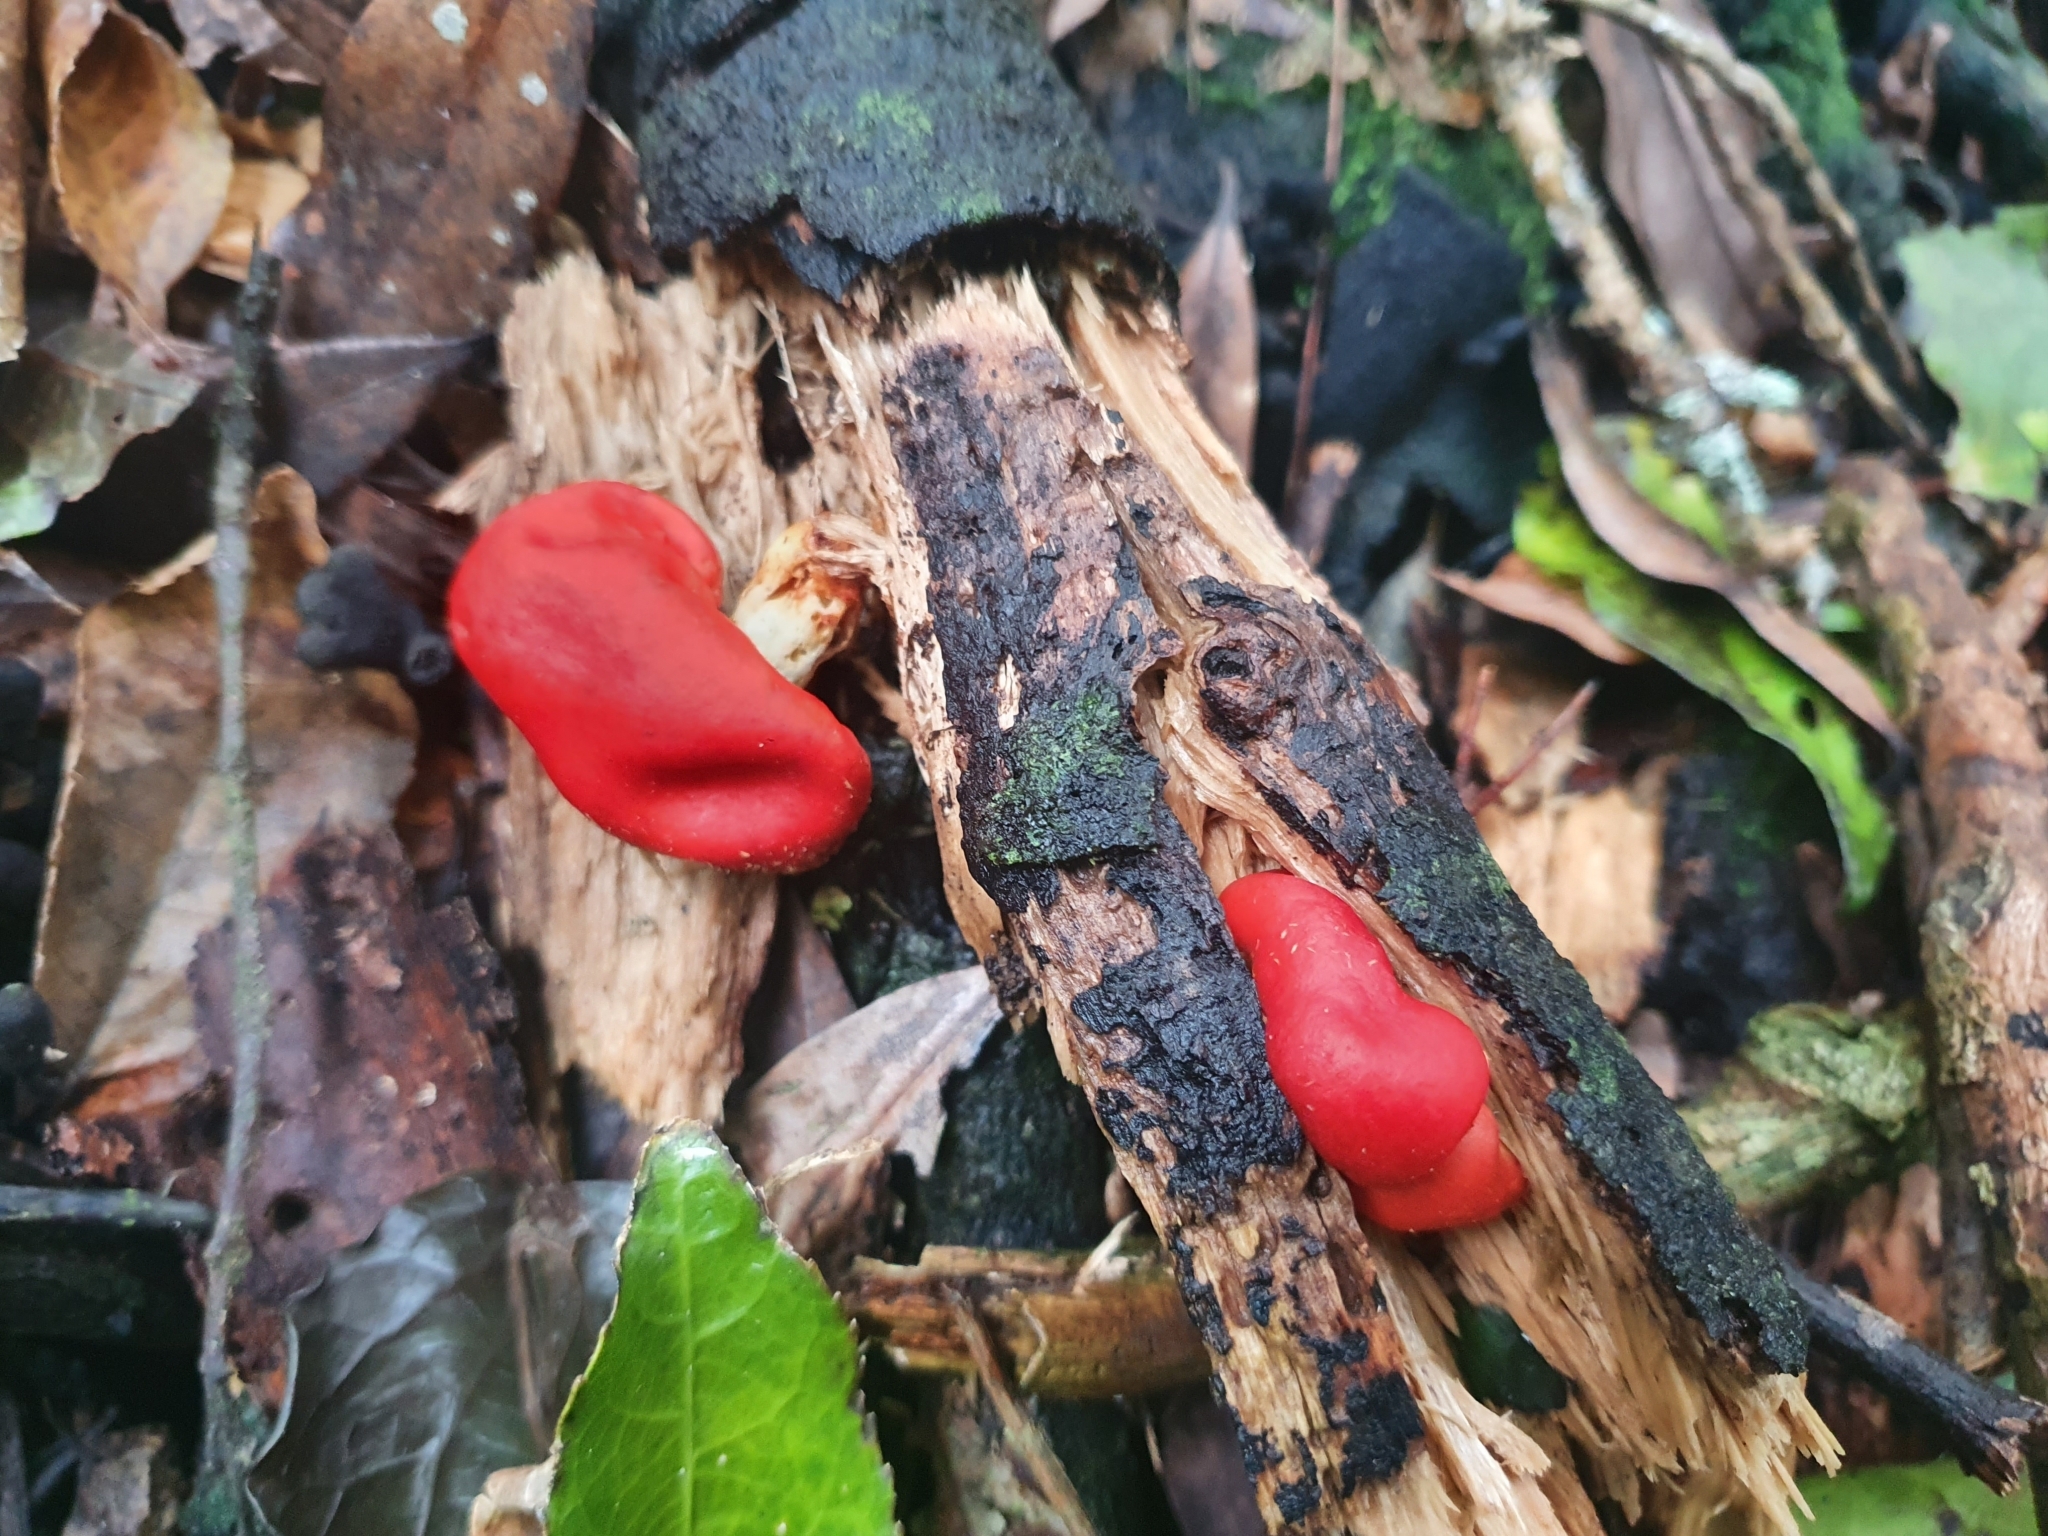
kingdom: Fungi
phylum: Basidiomycota
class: Agaricomycetes
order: Agaricales
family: Strophariaceae
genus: Leratiomyces
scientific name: Leratiomyces erythrocephalus
